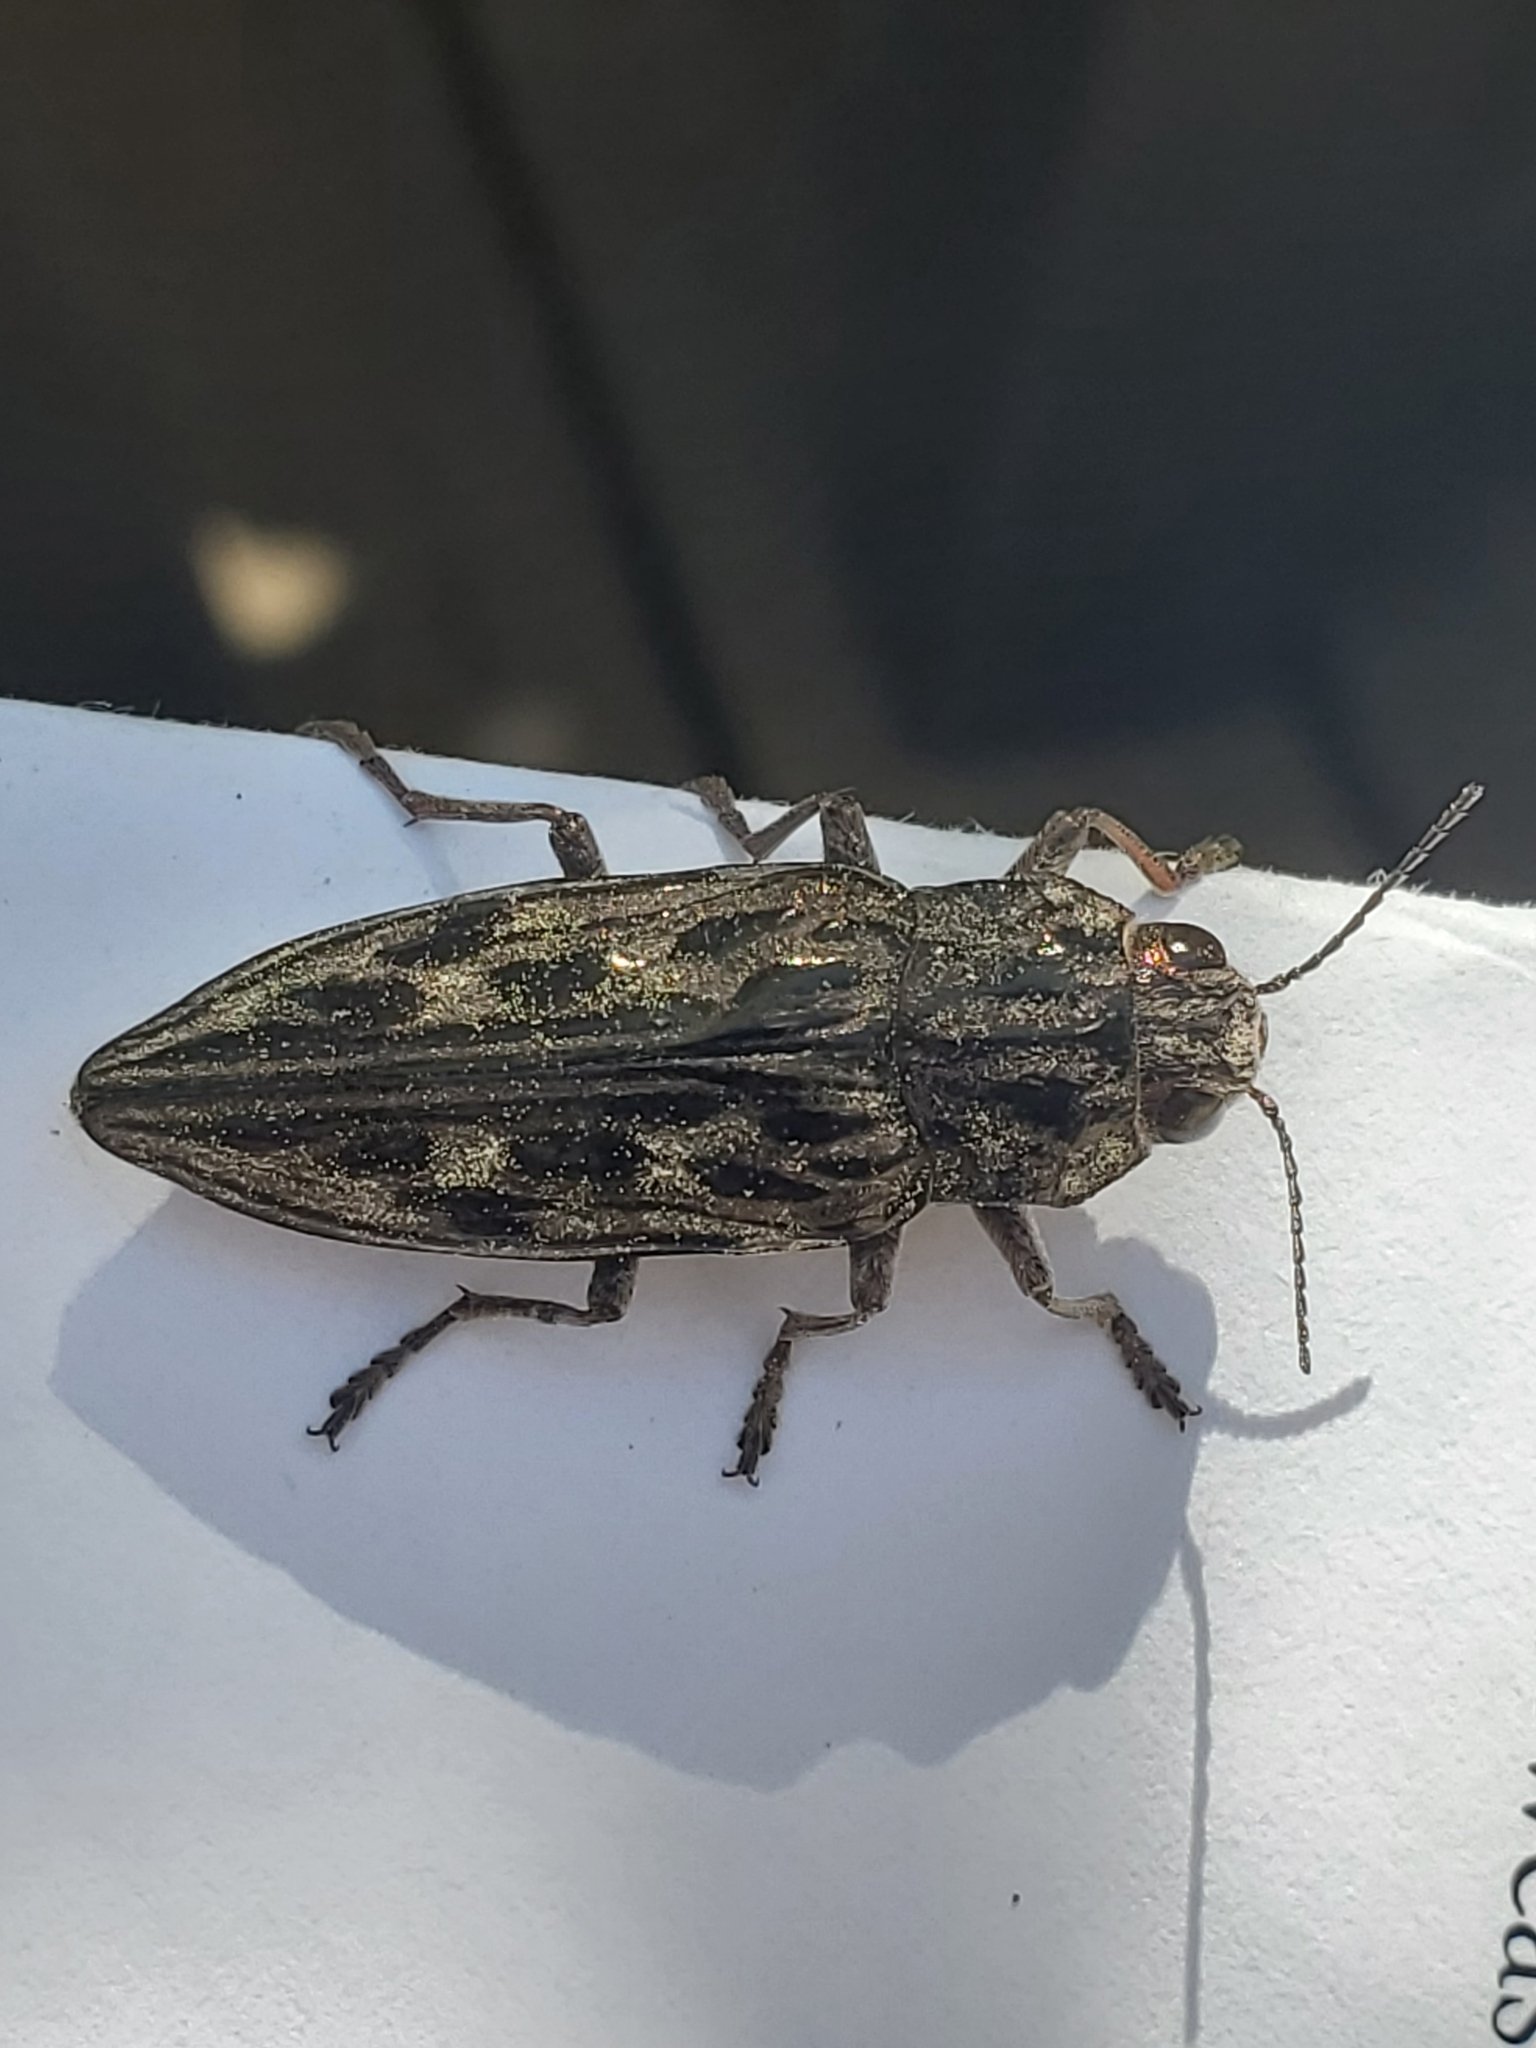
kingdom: Animalia
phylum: Arthropoda
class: Insecta
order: Coleoptera
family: Buprestidae
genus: Chalcophora
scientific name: Chalcophora angulicollis
